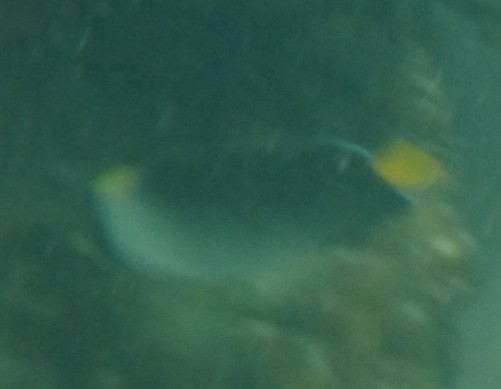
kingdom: Animalia
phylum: Chordata
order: Perciformes
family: Pomacanthidae
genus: Chaetodontoplus
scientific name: Chaetodontoplus mesoleucus
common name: Vermiculated angelfish
